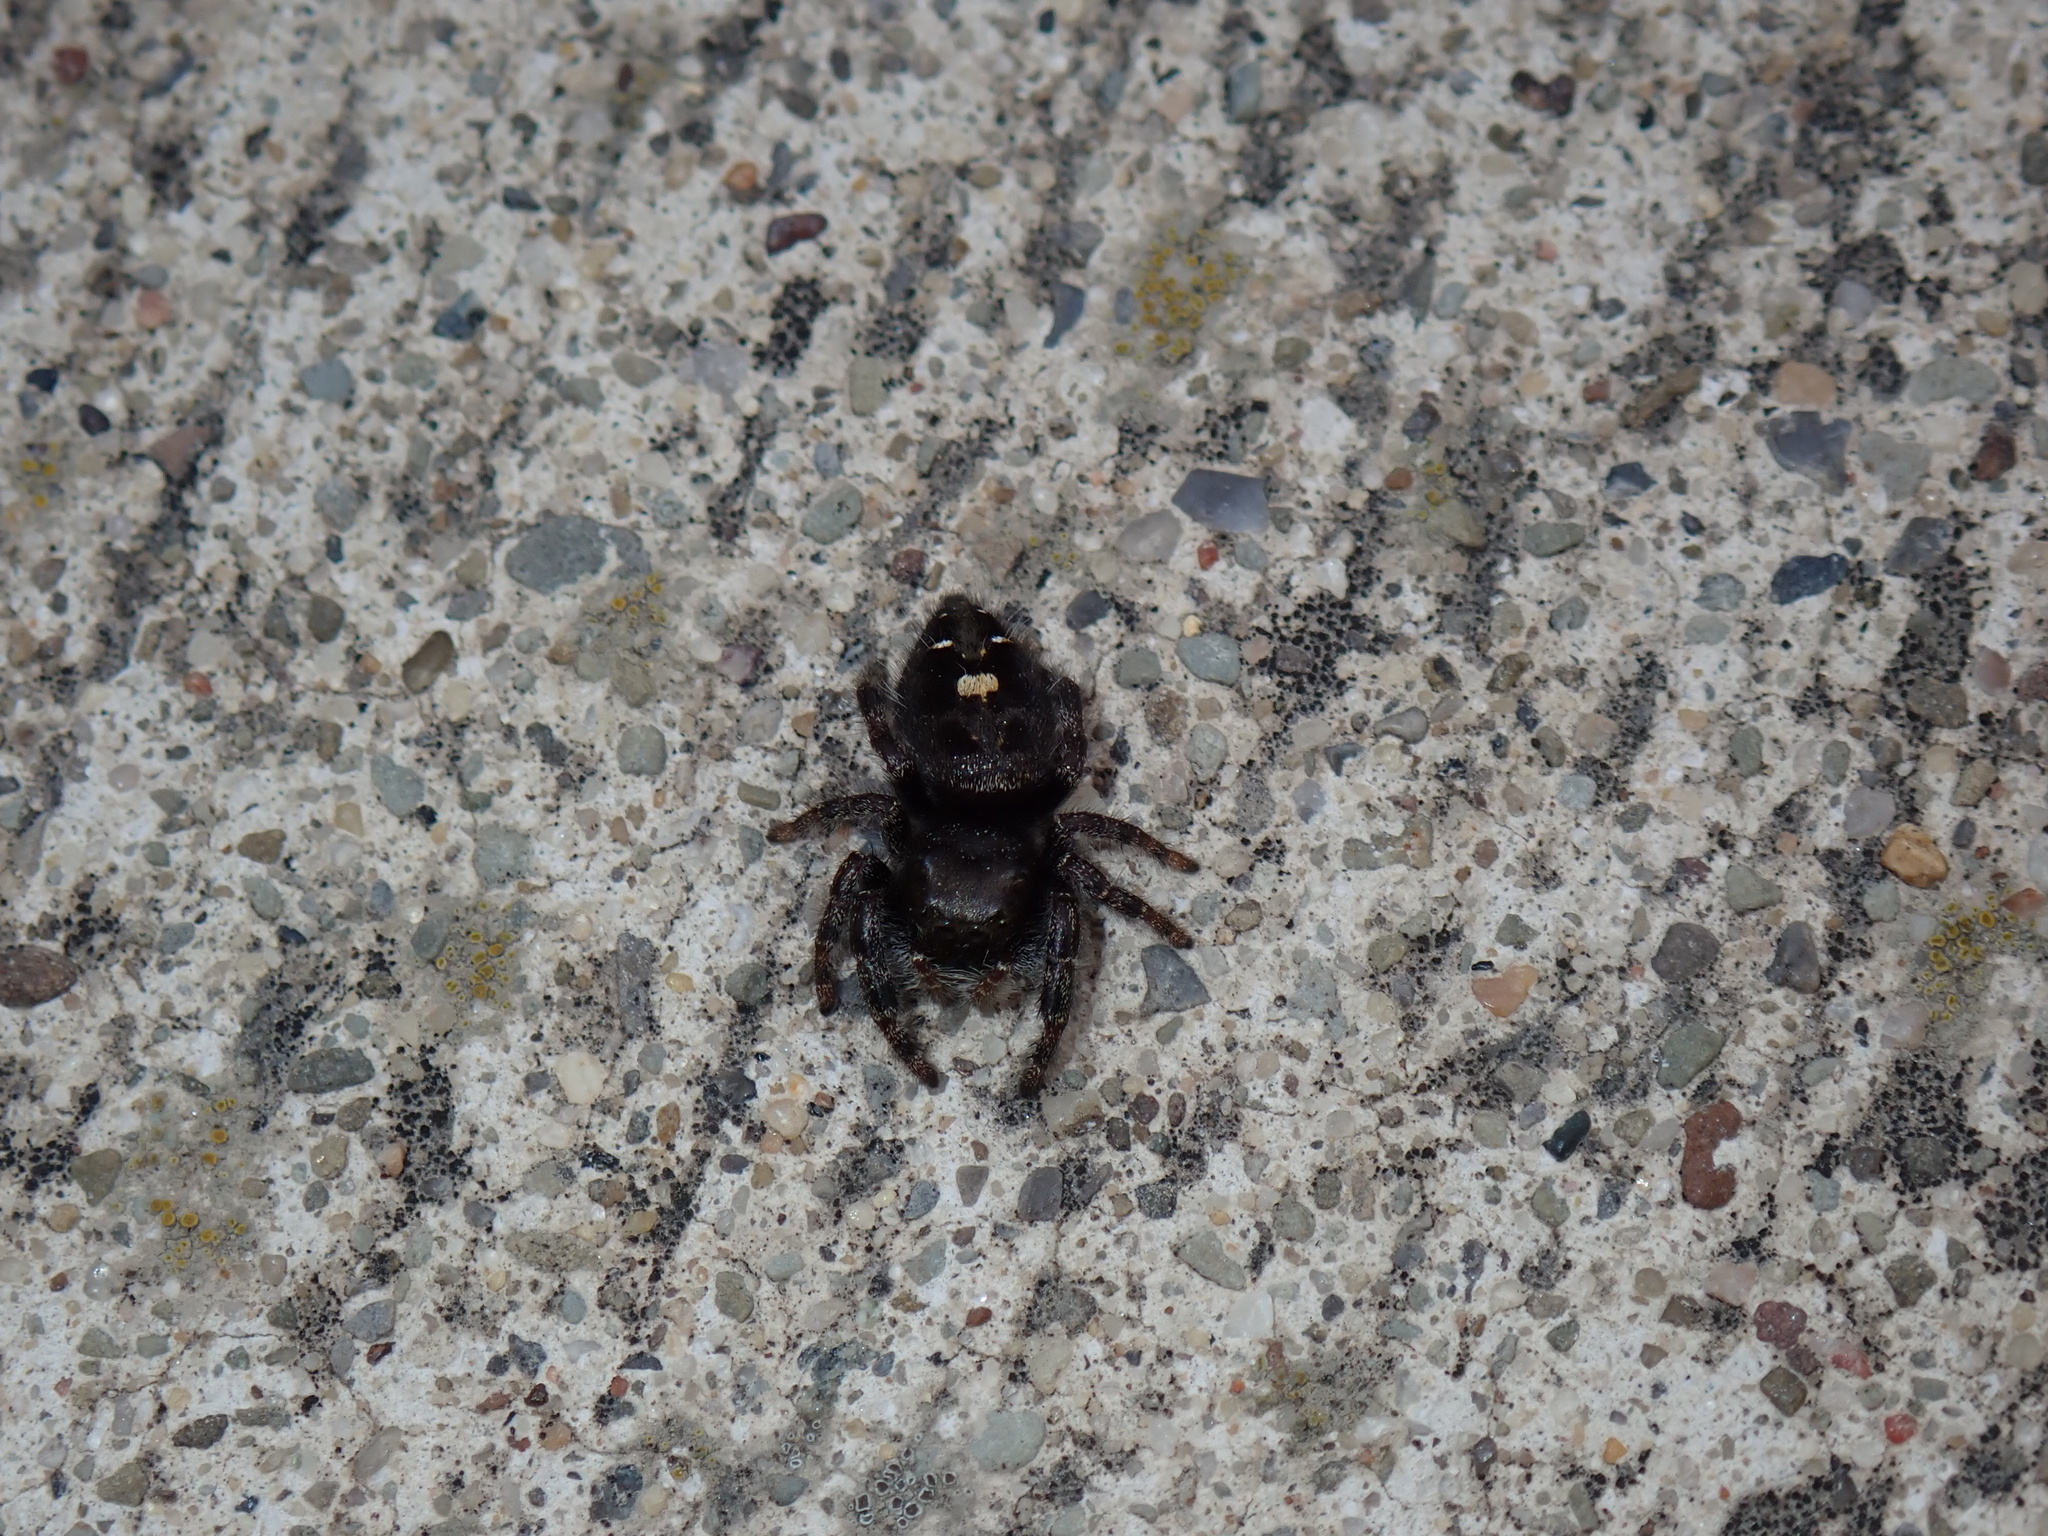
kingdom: Animalia
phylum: Arthropoda
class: Arachnida
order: Araneae
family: Salticidae
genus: Phidippus
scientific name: Phidippus audax
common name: Bold jumper
